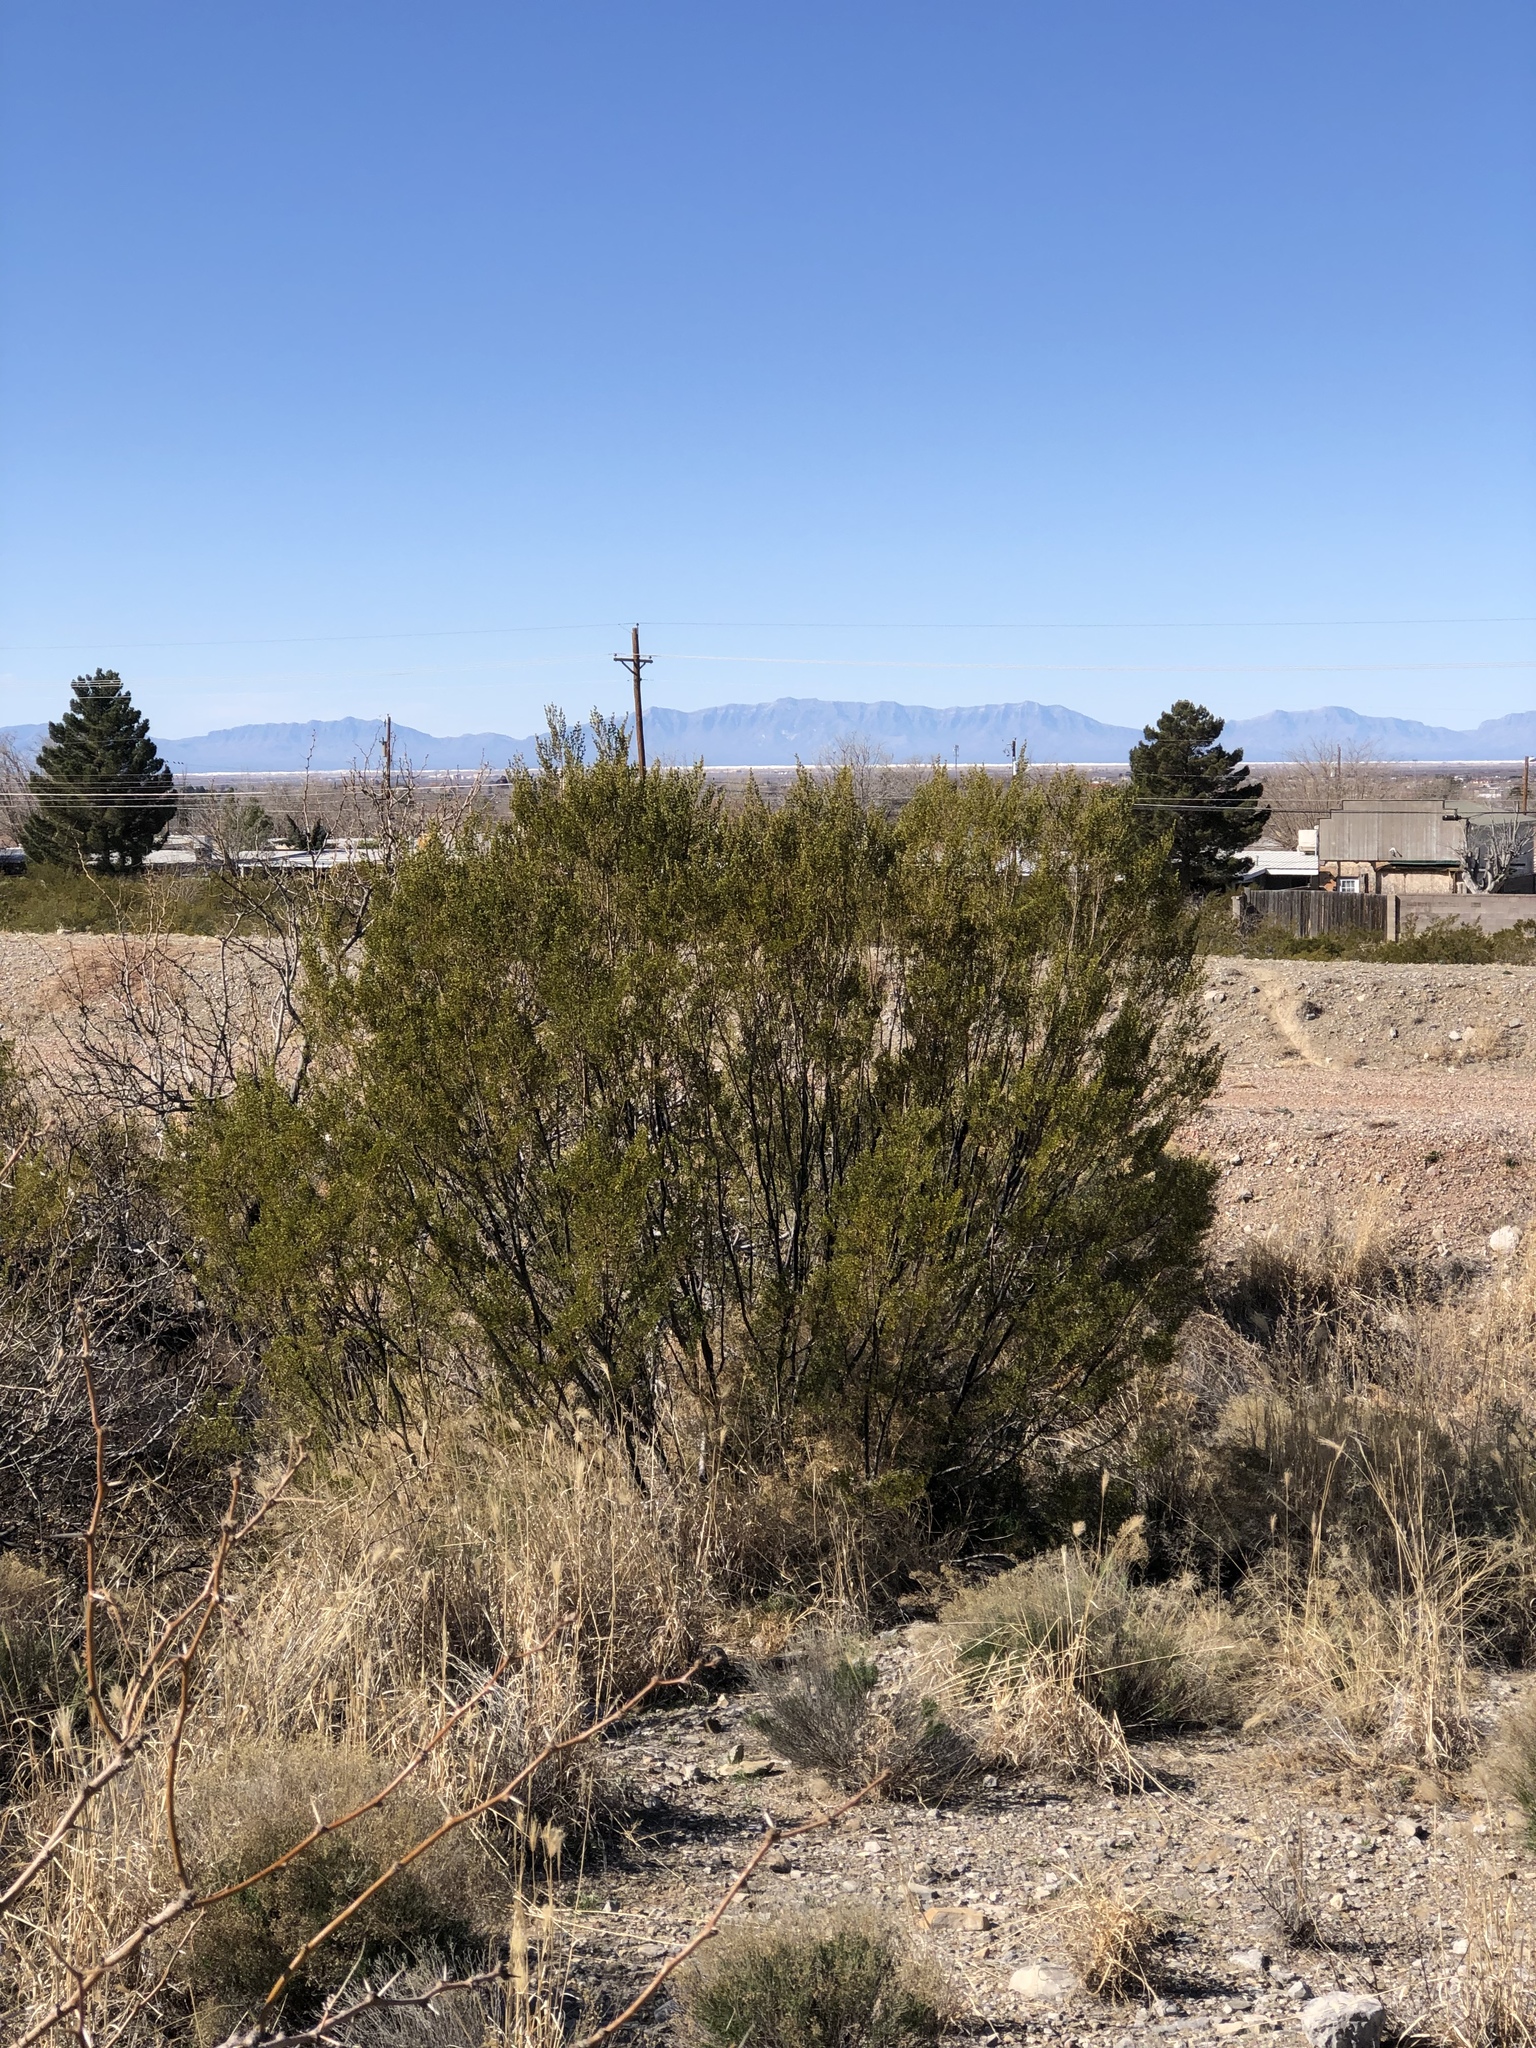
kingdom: Plantae
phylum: Tracheophyta
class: Magnoliopsida
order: Zygophyllales
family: Zygophyllaceae
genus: Larrea
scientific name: Larrea tridentata
